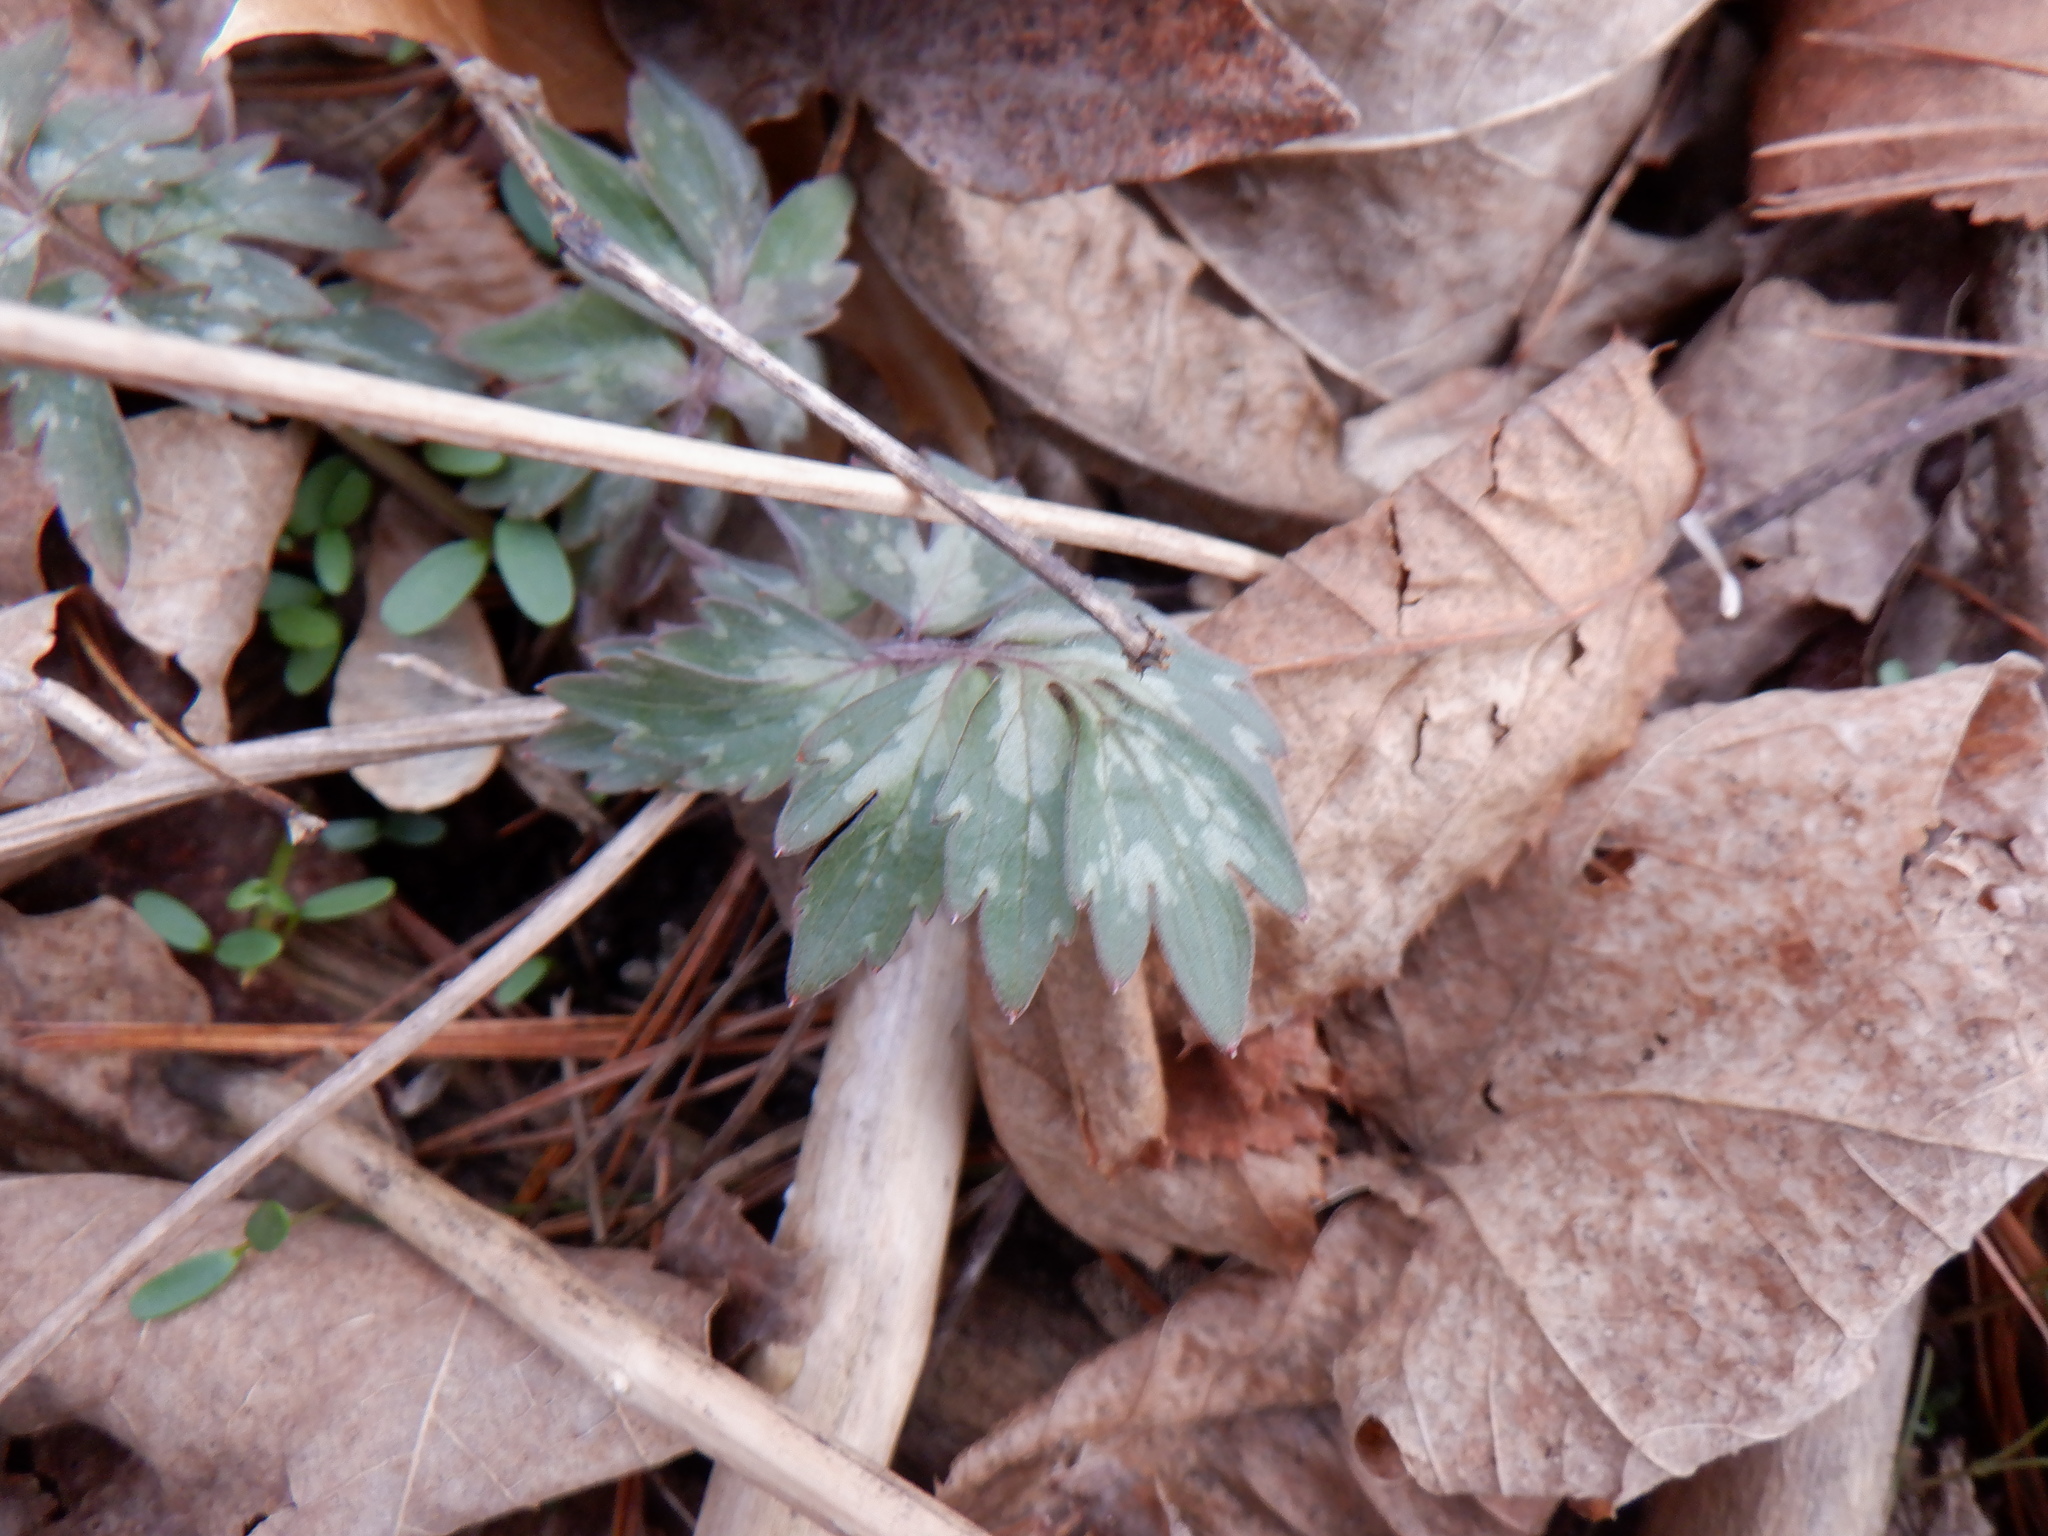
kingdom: Plantae
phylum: Tracheophyta
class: Magnoliopsida
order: Boraginales
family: Hydrophyllaceae
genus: Hydrophyllum
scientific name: Hydrophyllum virginianum
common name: Virginia waterleaf
